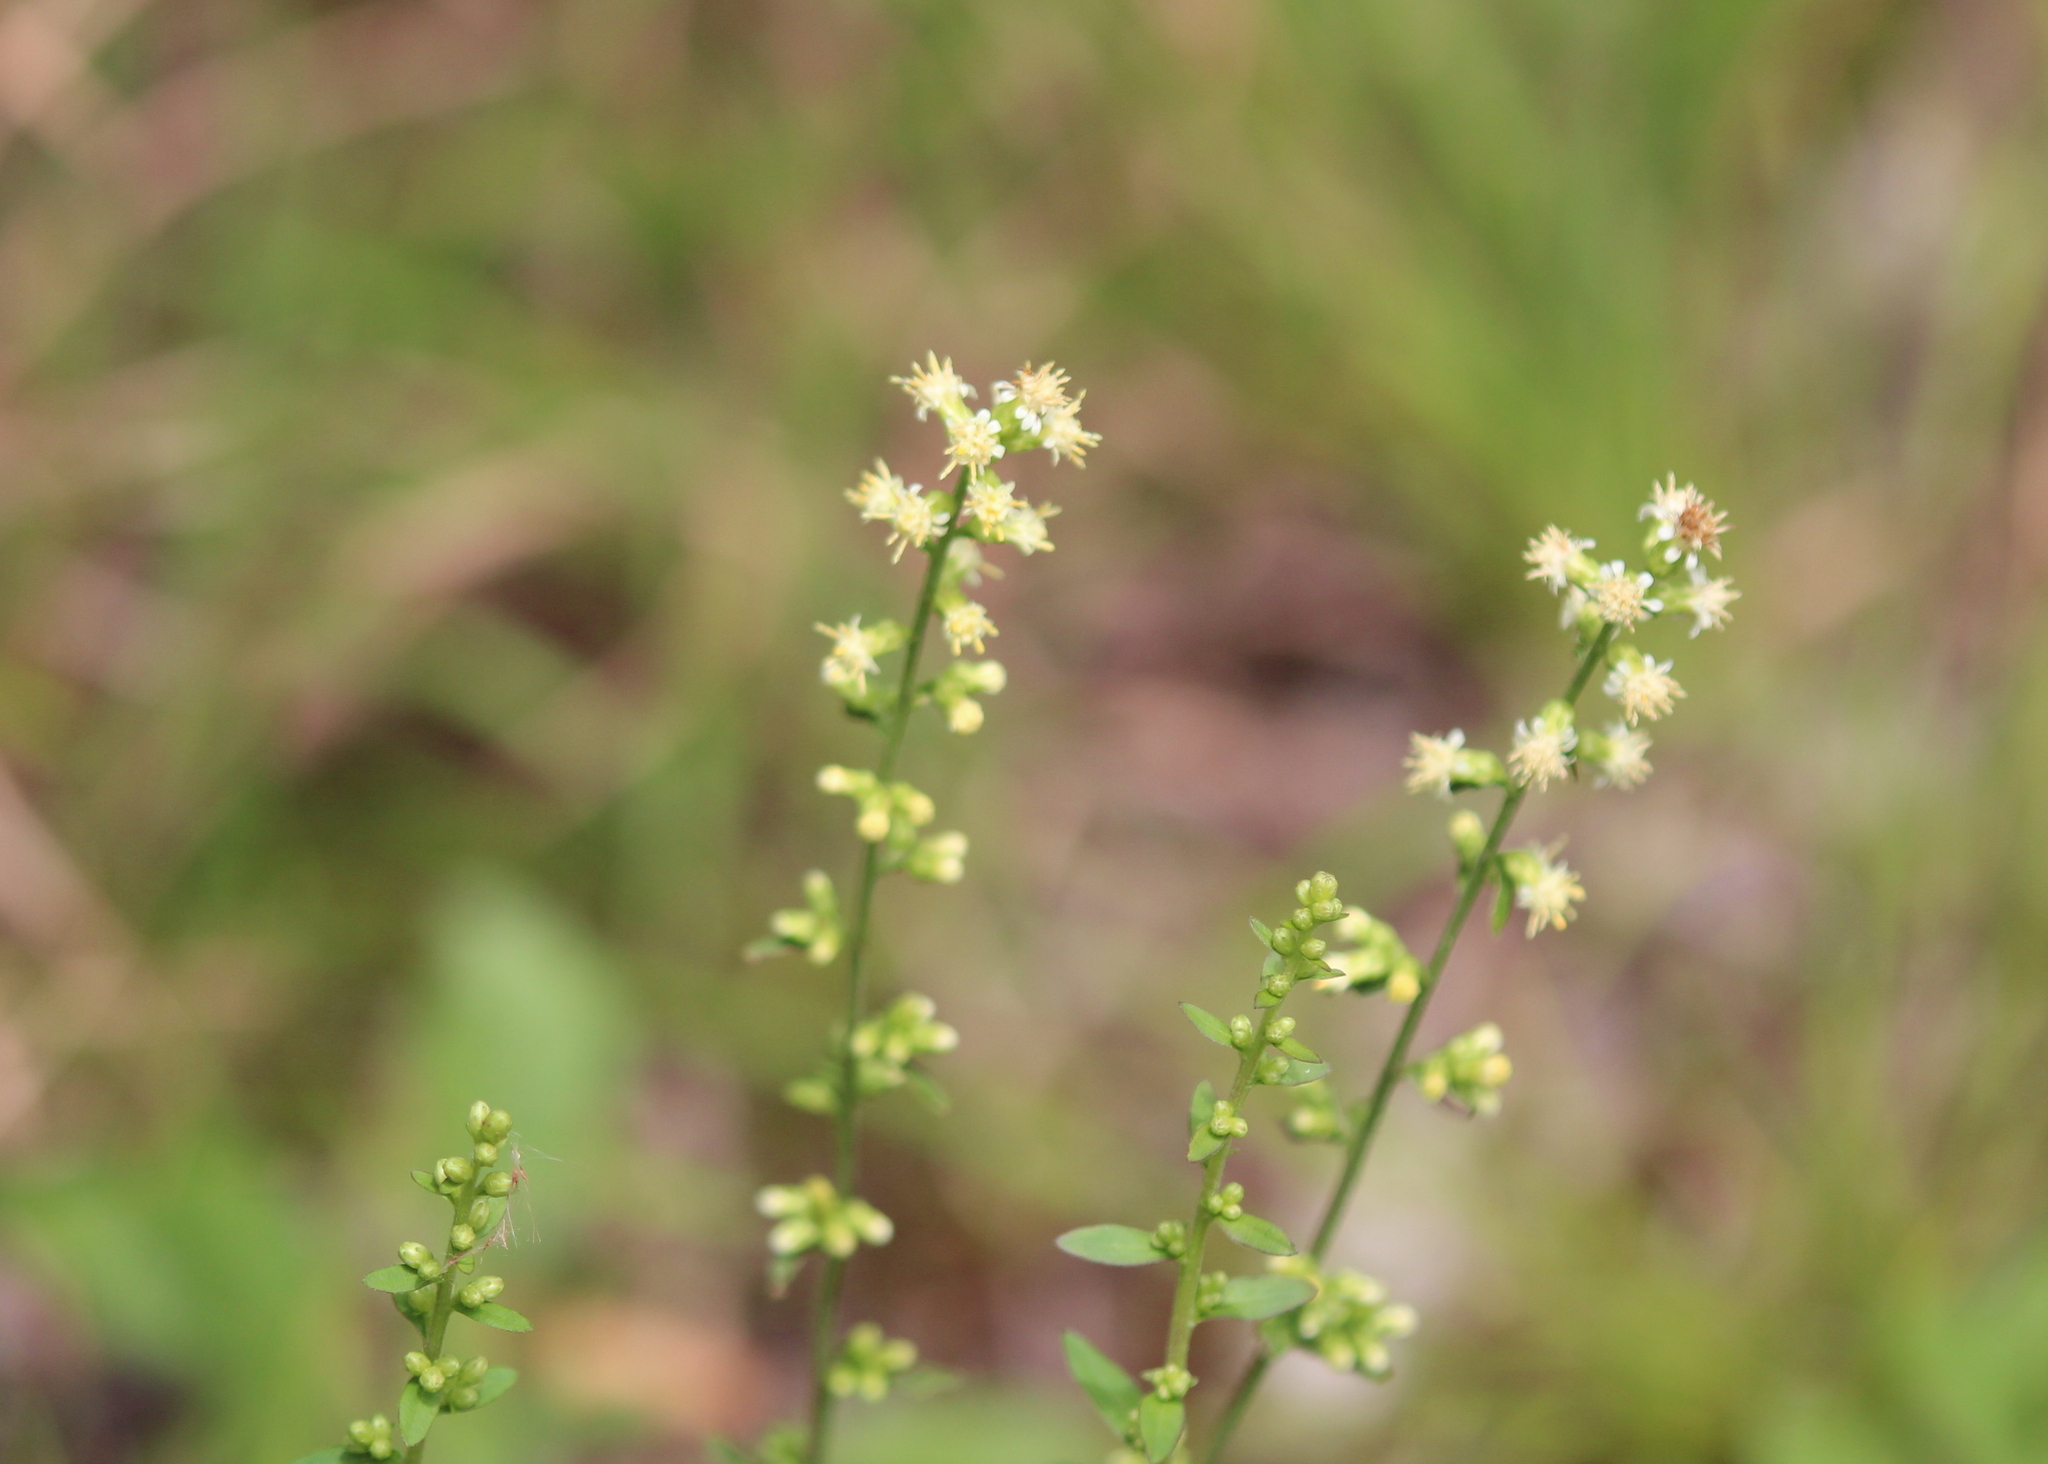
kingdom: Plantae
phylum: Tracheophyta
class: Magnoliopsida
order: Asterales
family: Asteraceae
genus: Solidago
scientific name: Solidago bicolor
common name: Silverrod
